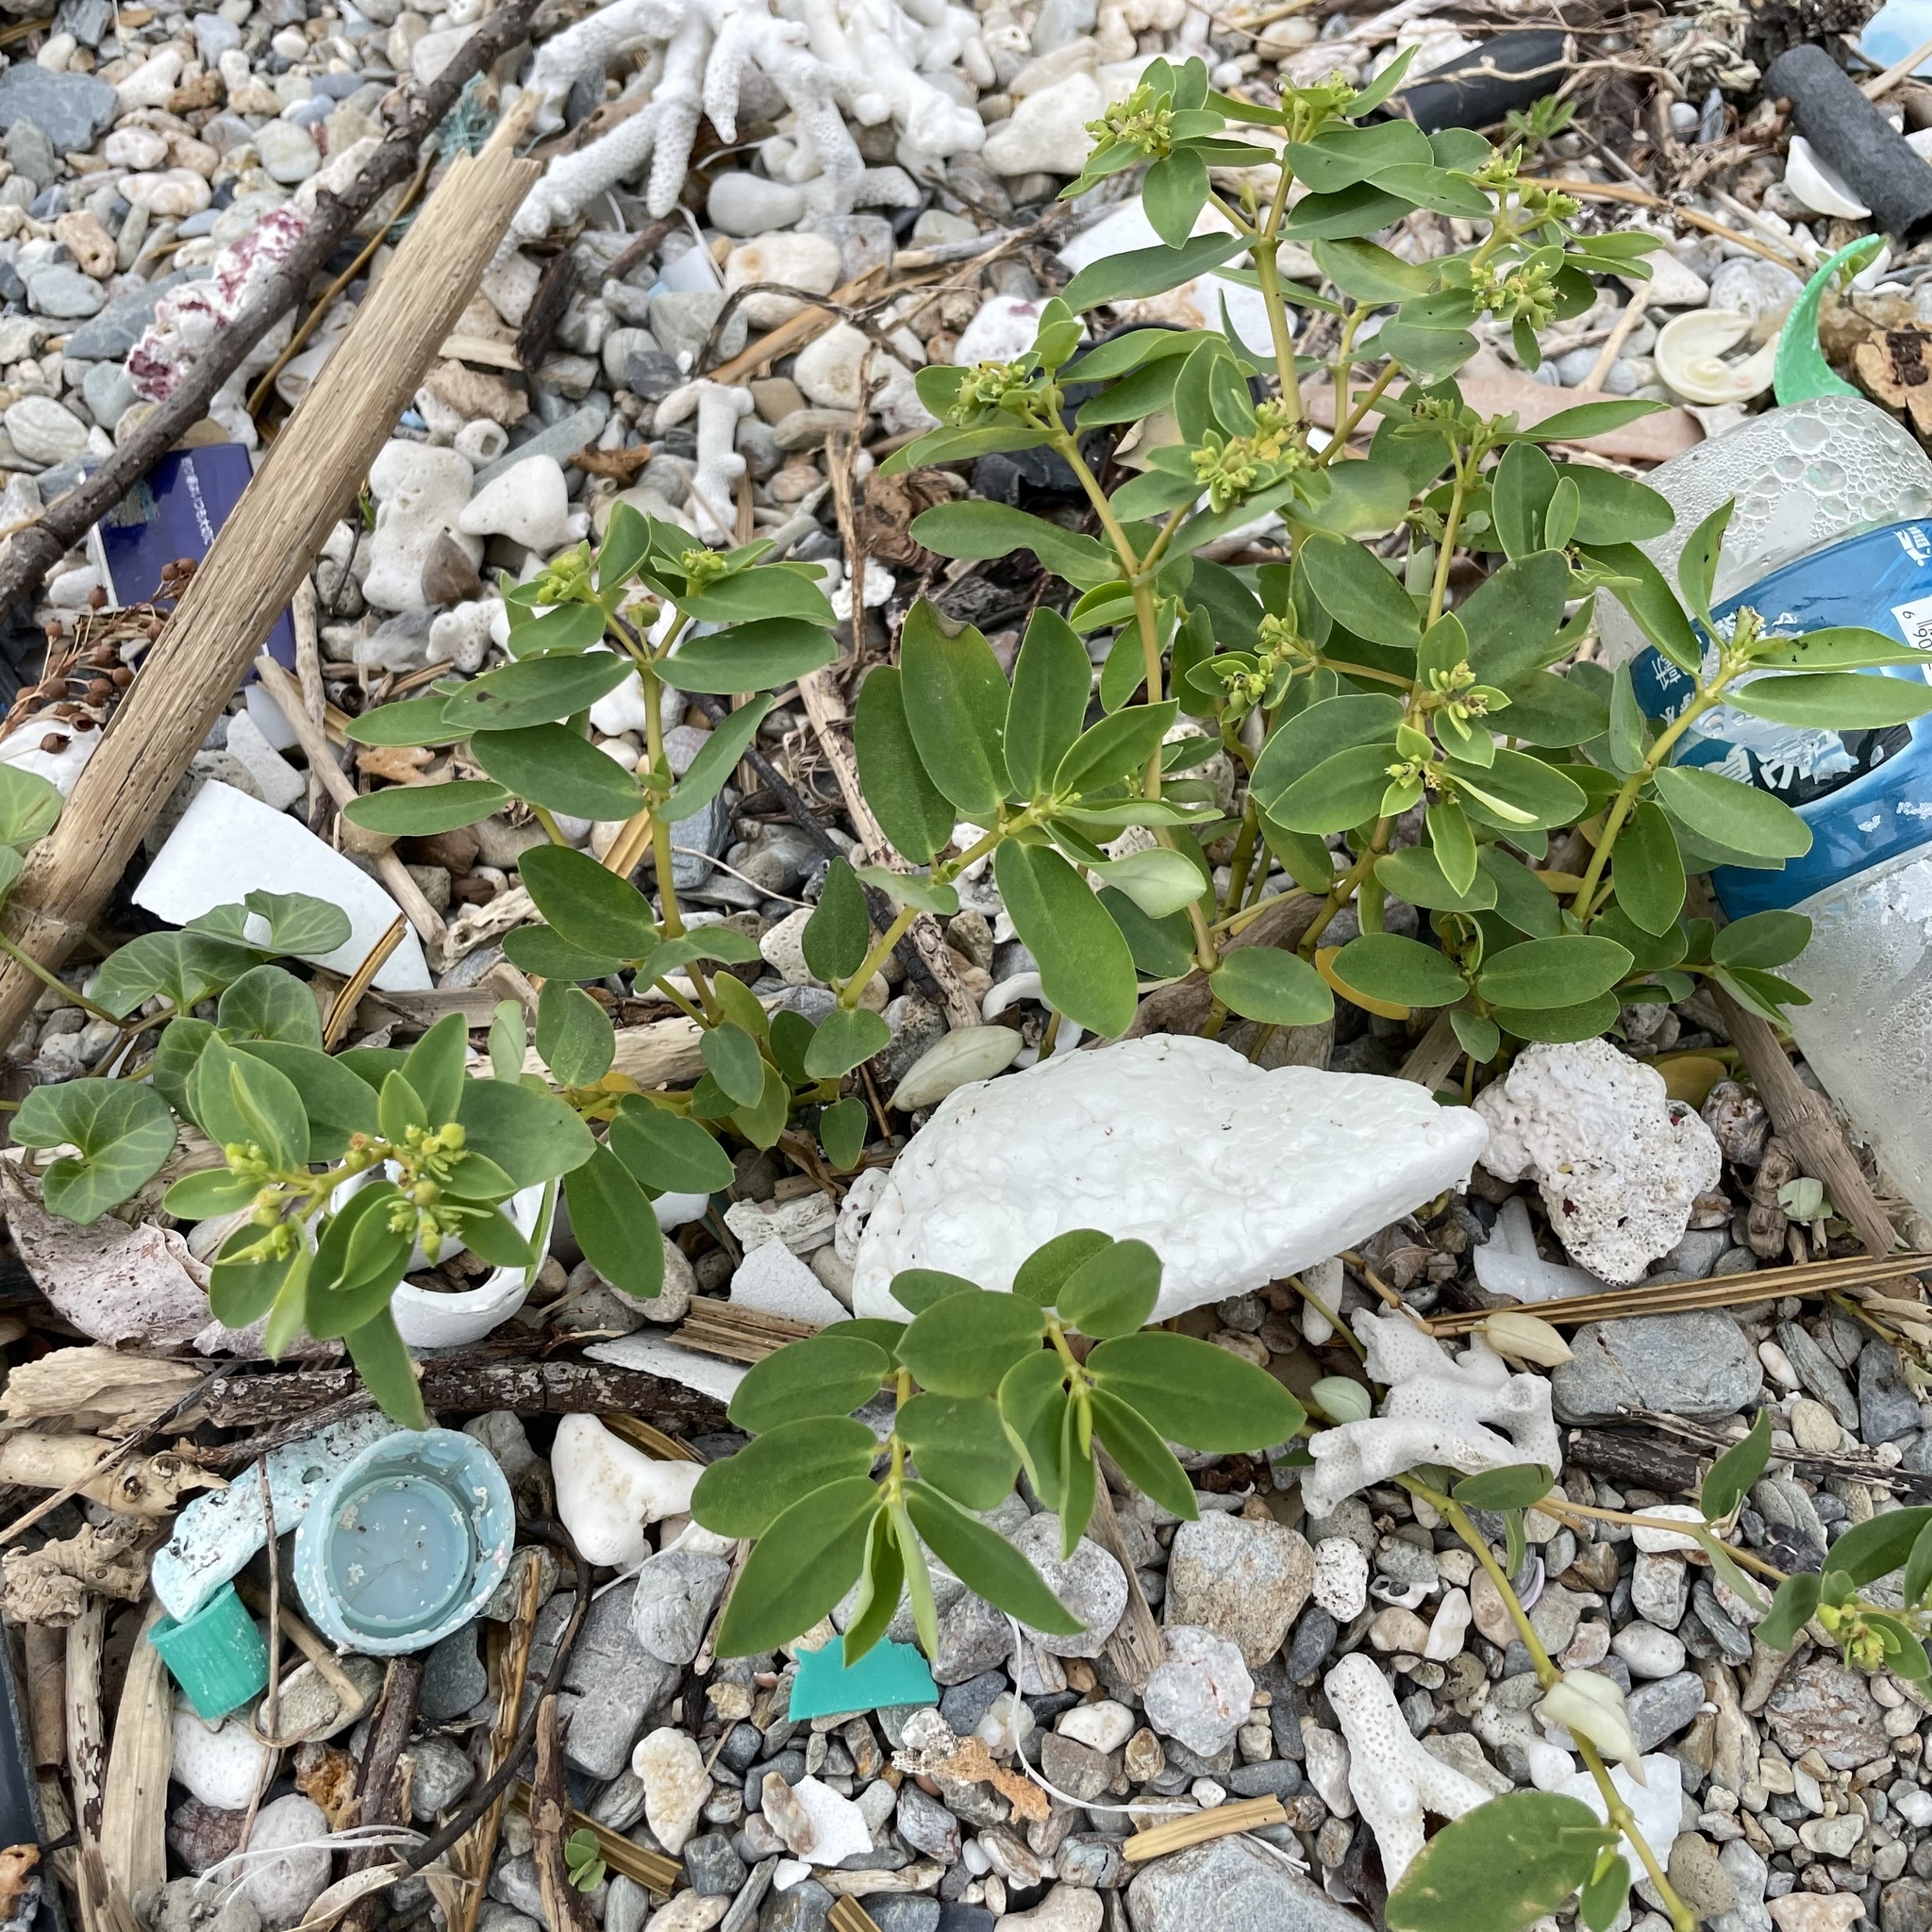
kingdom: Plantae
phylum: Tracheophyta
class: Magnoliopsida
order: Malpighiales
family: Euphorbiaceae
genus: Euphorbia
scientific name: Euphorbia atoto
